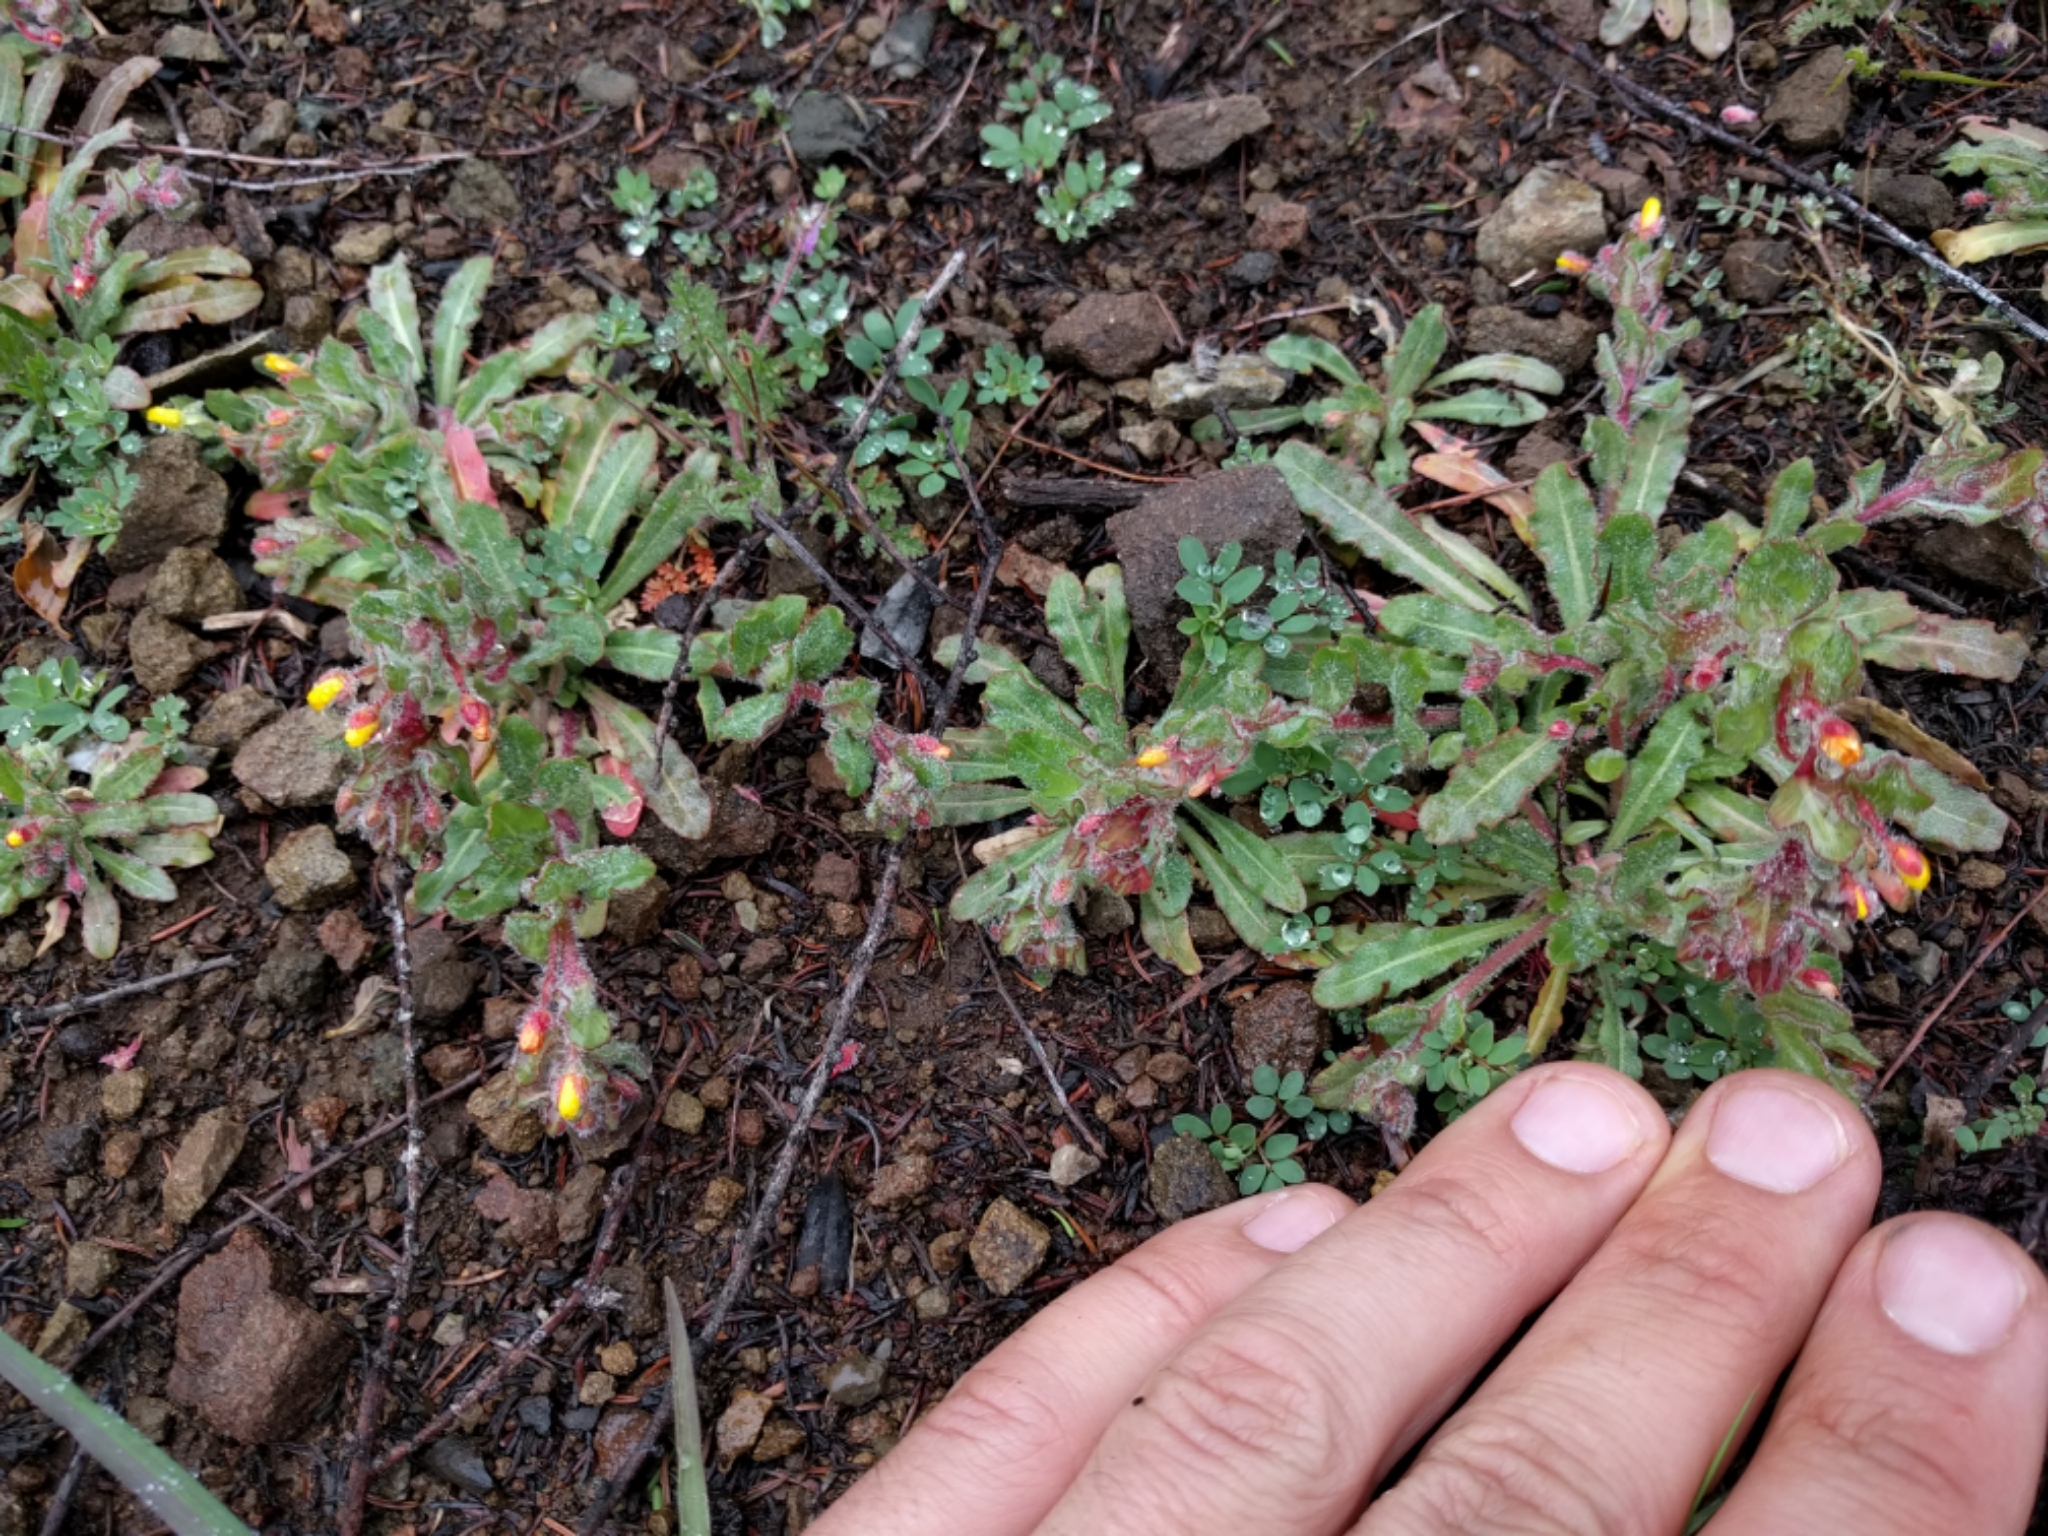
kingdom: Plantae
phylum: Tracheophyta
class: Magnoliopsida
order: Myrtales
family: Onagraceae
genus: Camissoniopsis
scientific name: Camissoniopsis micrantha
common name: Miniature suncup
